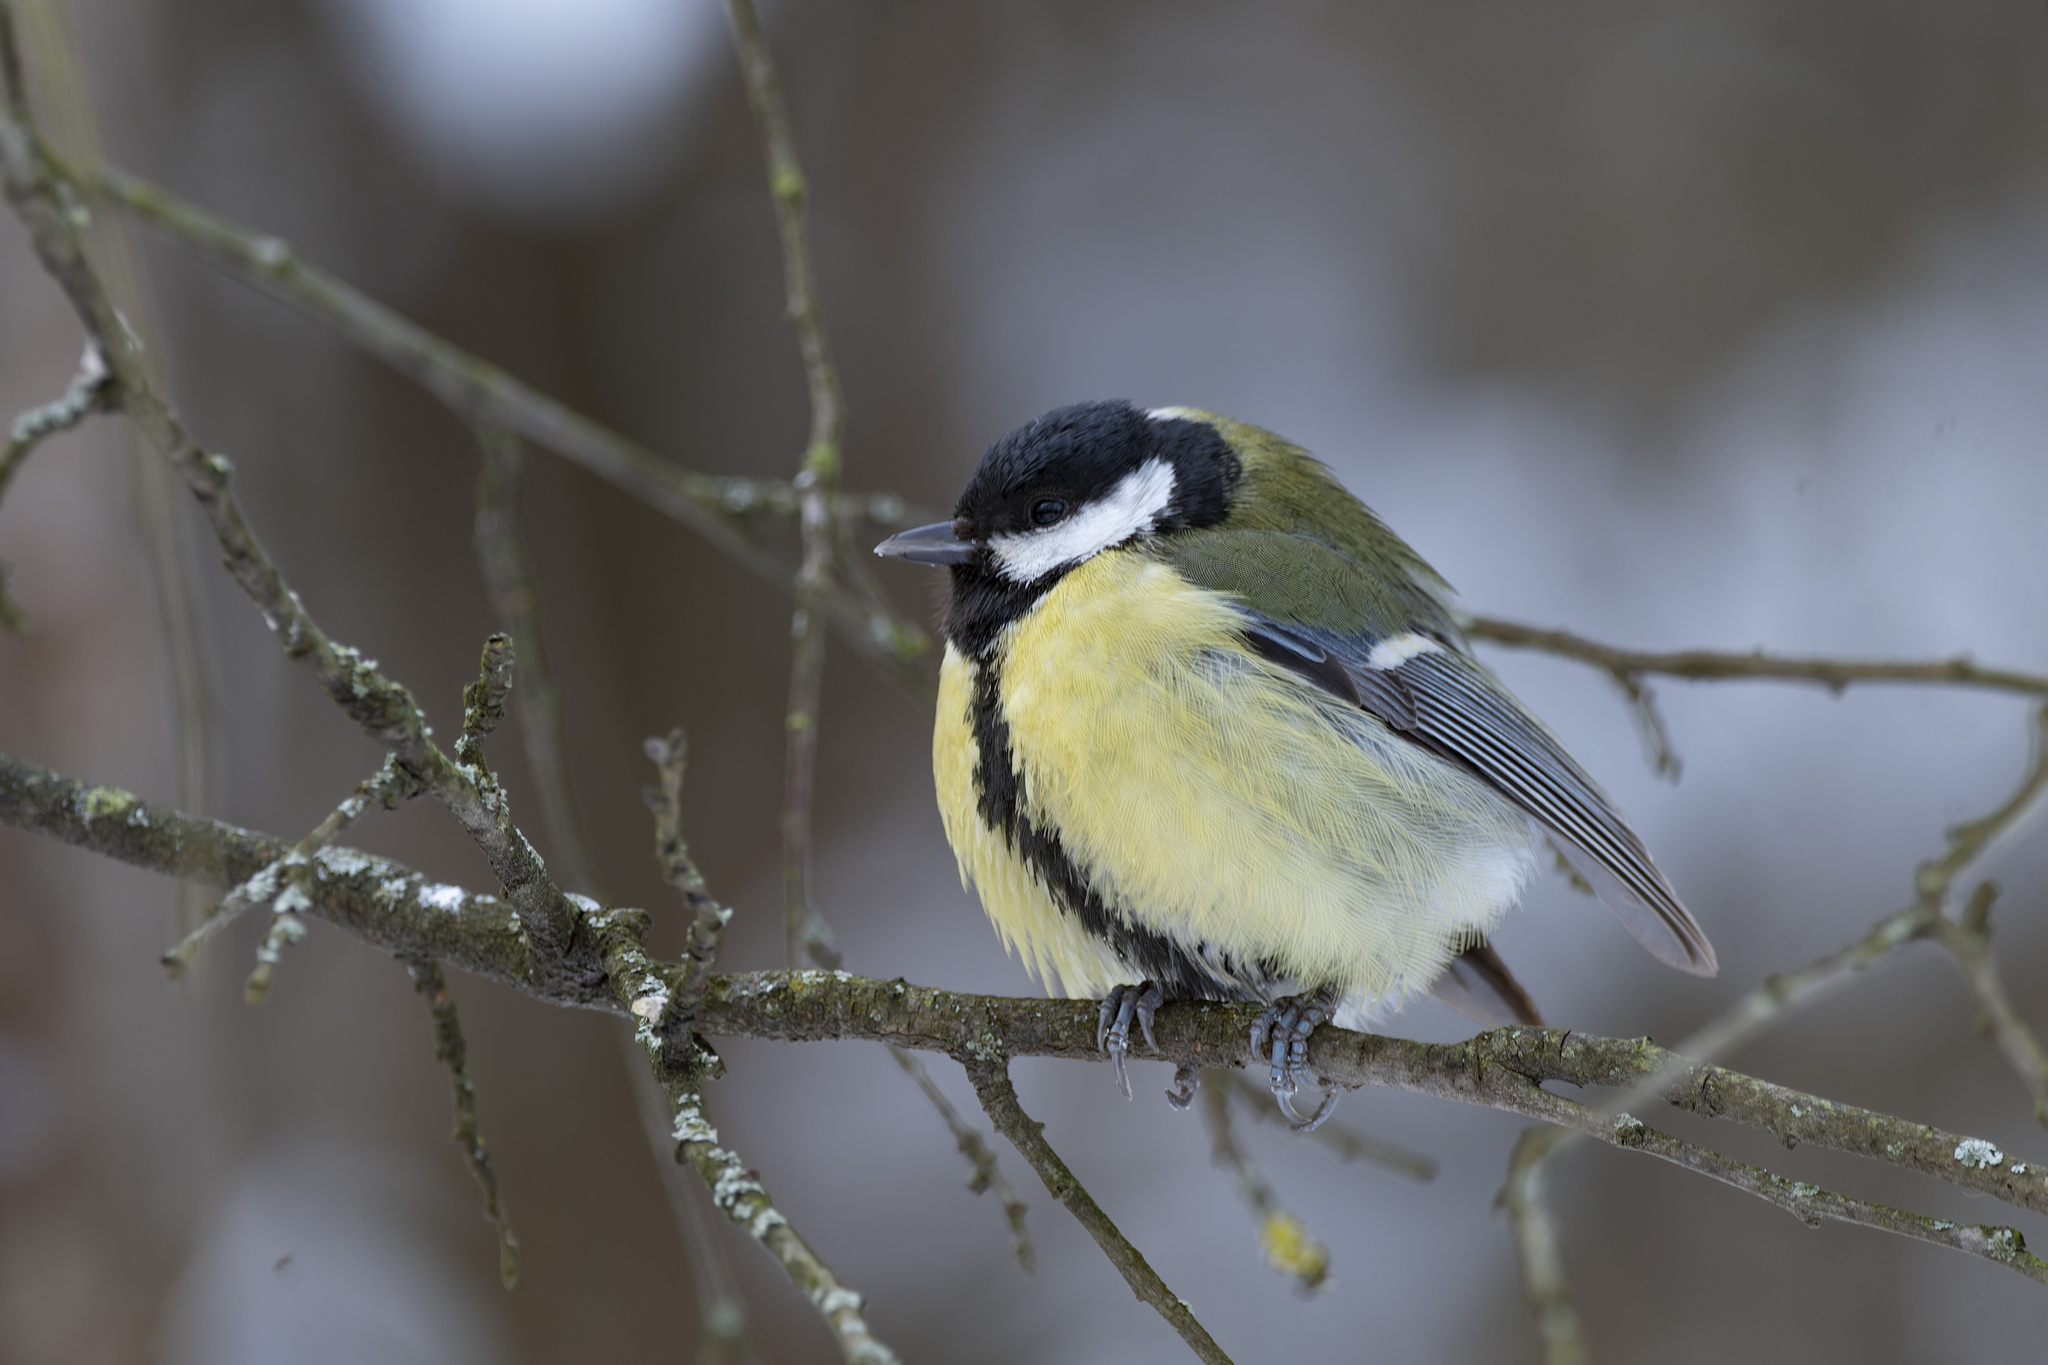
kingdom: Animalia
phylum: Chordata
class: Aves
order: Passeriformes
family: Paridae
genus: Parus
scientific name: Parus major
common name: Great tit
